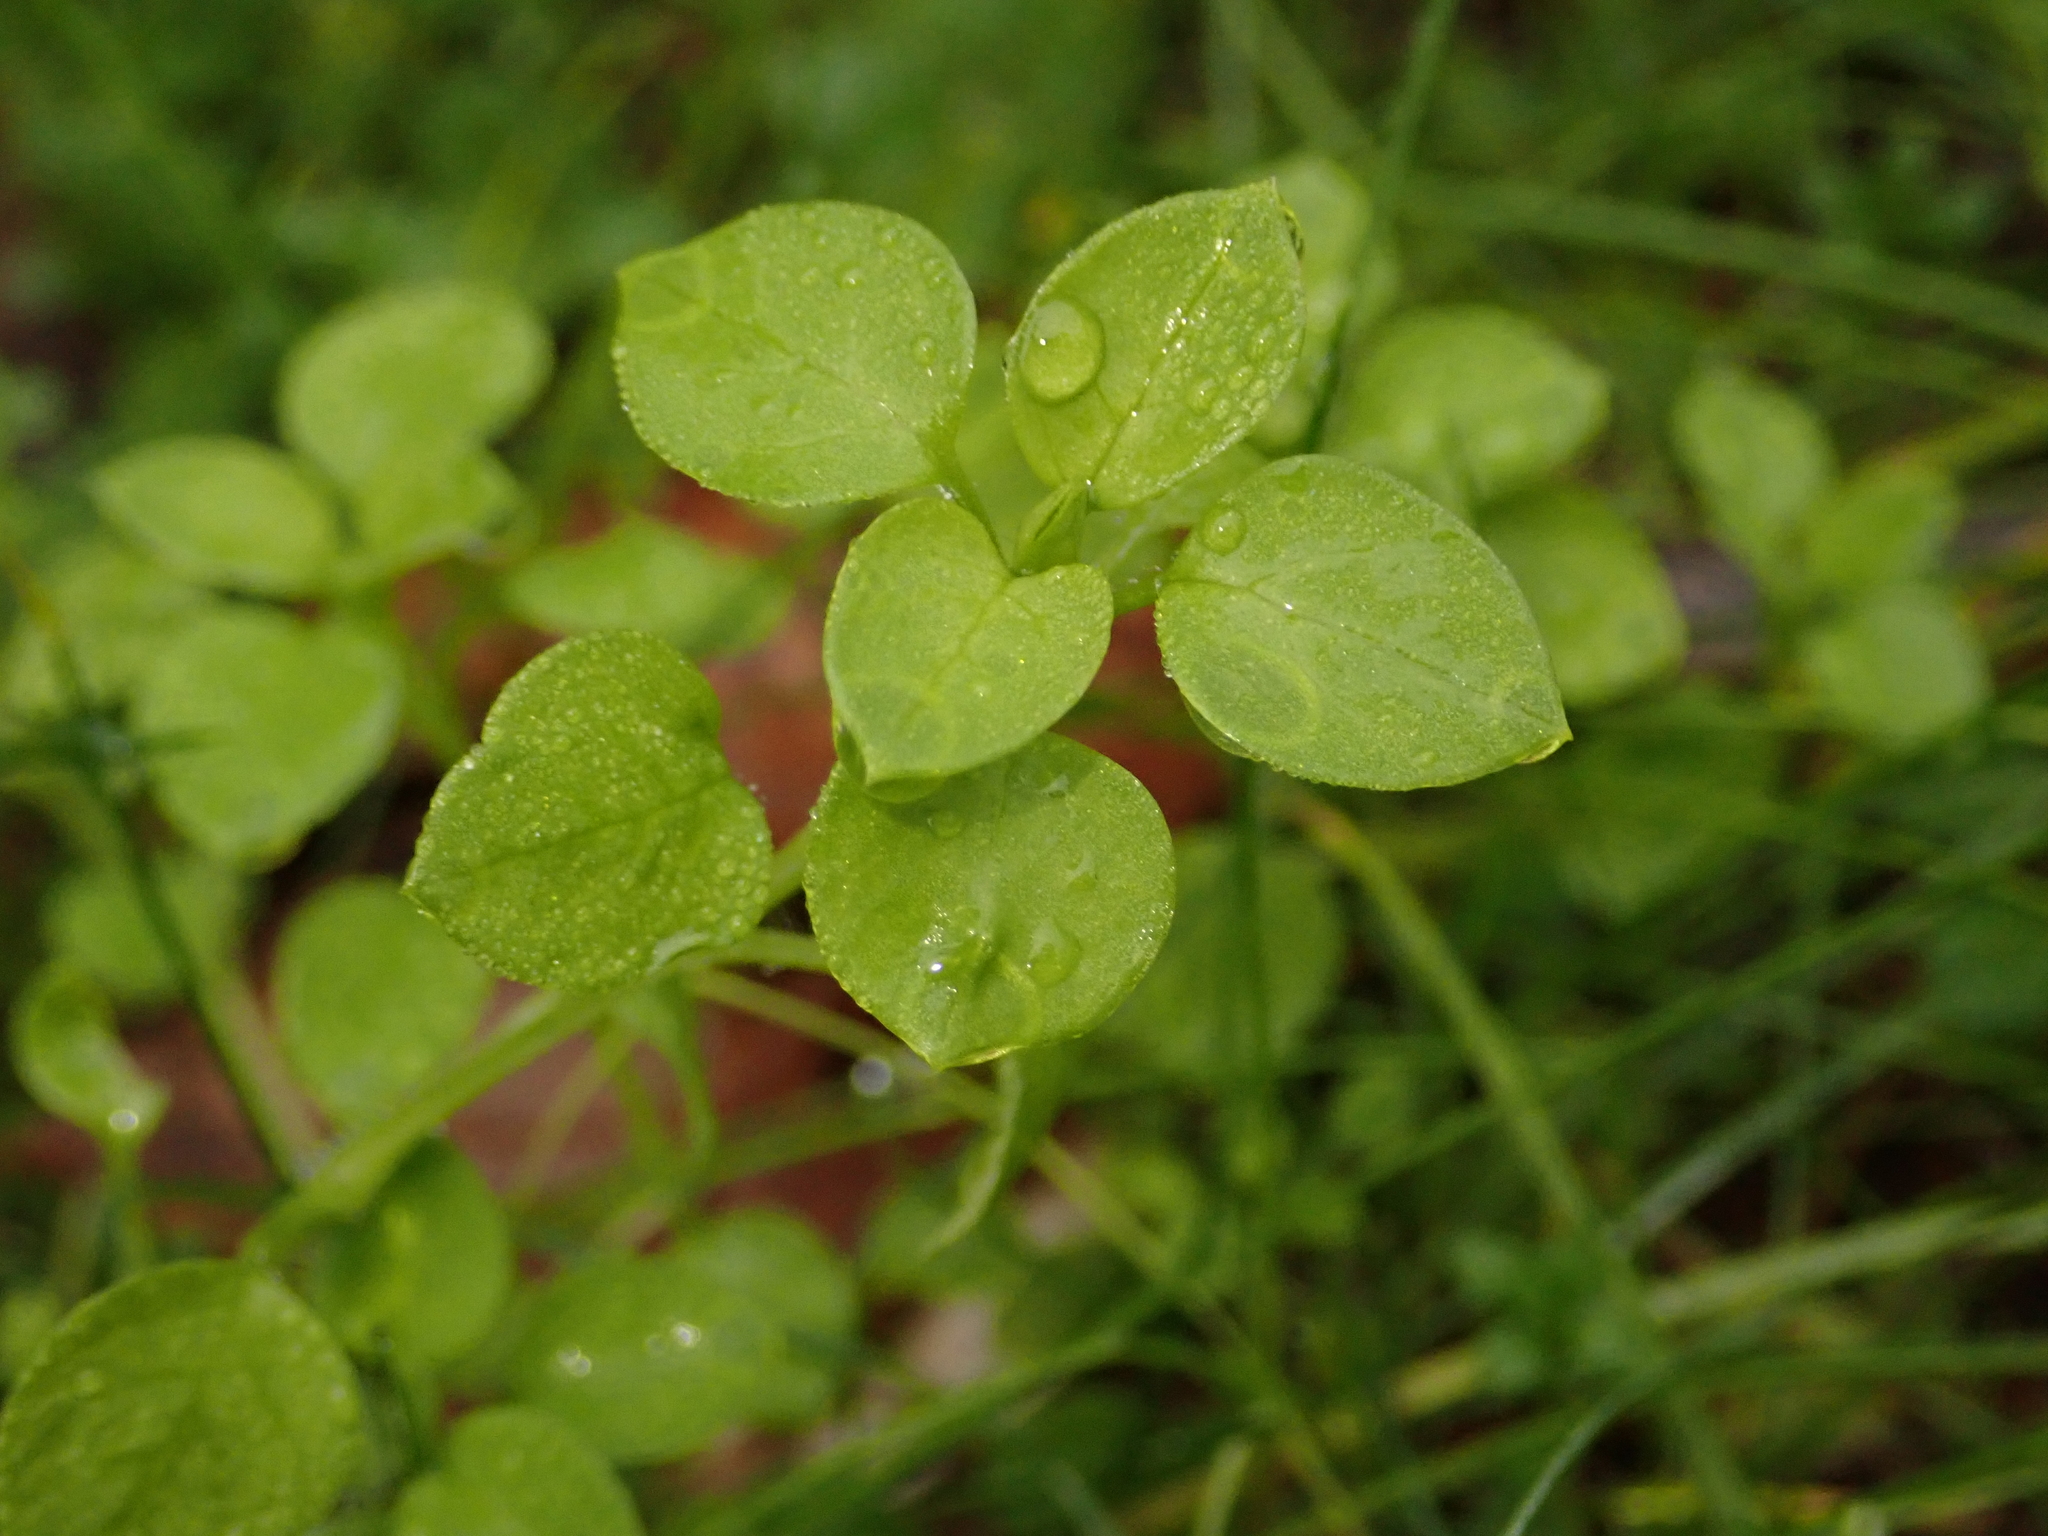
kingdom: Plantae
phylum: Tracheophyta
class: Magnoliopsida
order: Caryophyllales
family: Caryophyllaceae
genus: Stellaria
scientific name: Stellaria media
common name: Common chickweed
